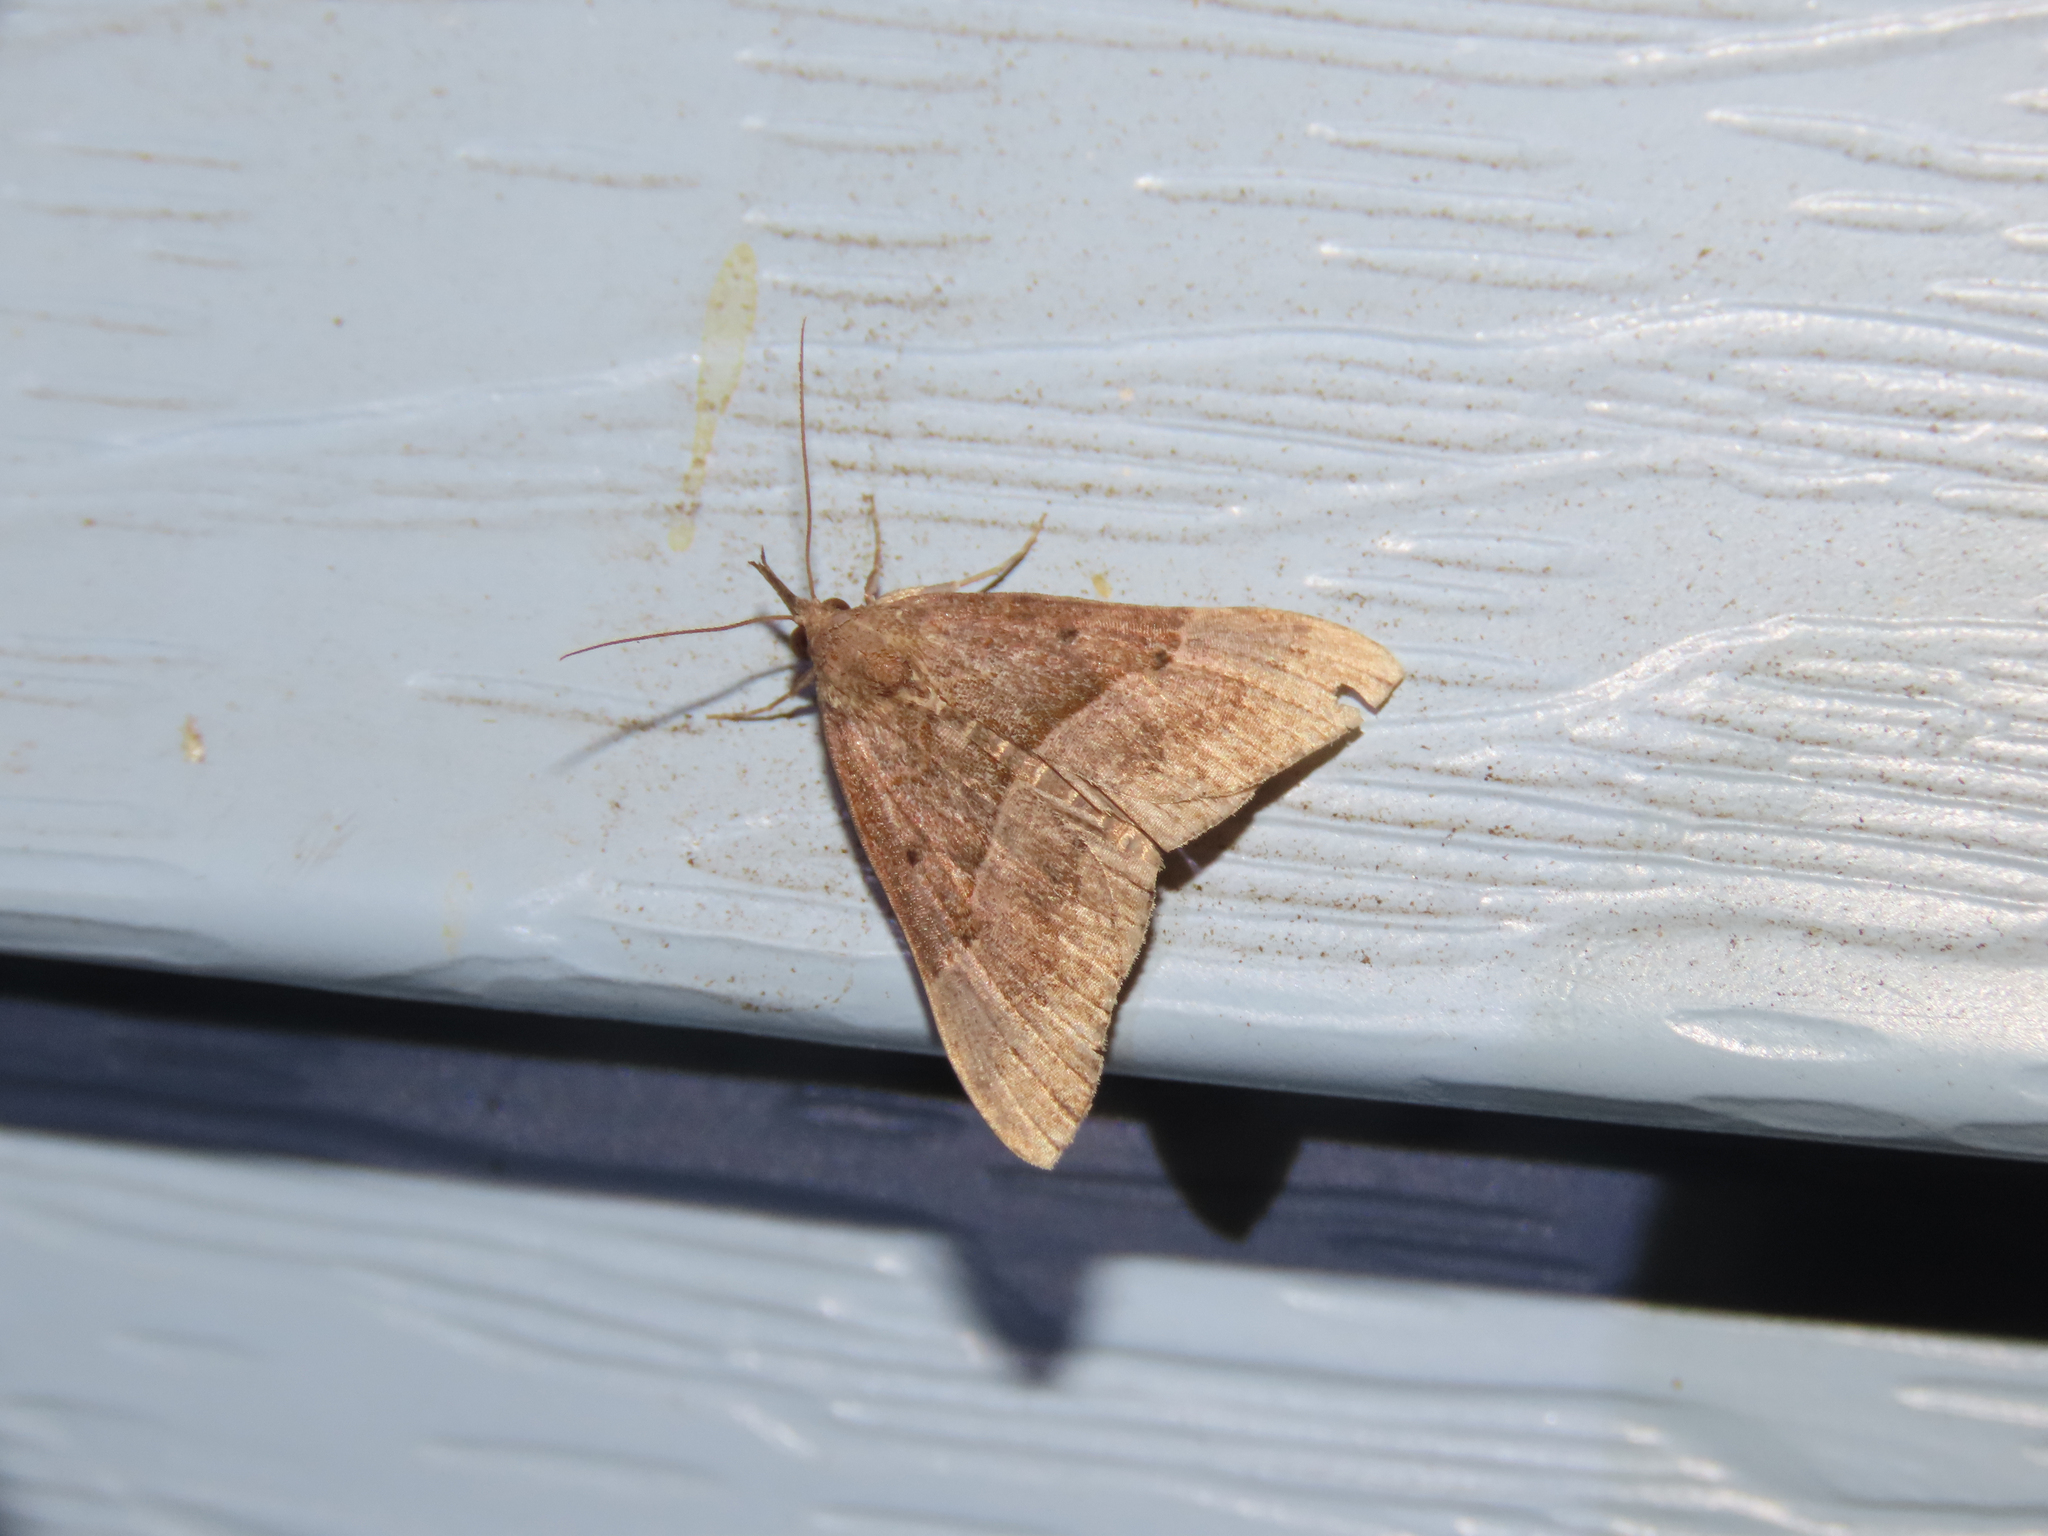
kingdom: Animalia
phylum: Arthropoda
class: Insecta
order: Lepidoptera
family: Erebidae
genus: Hypena
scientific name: Hypena eductalis
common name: Red-footed snout
